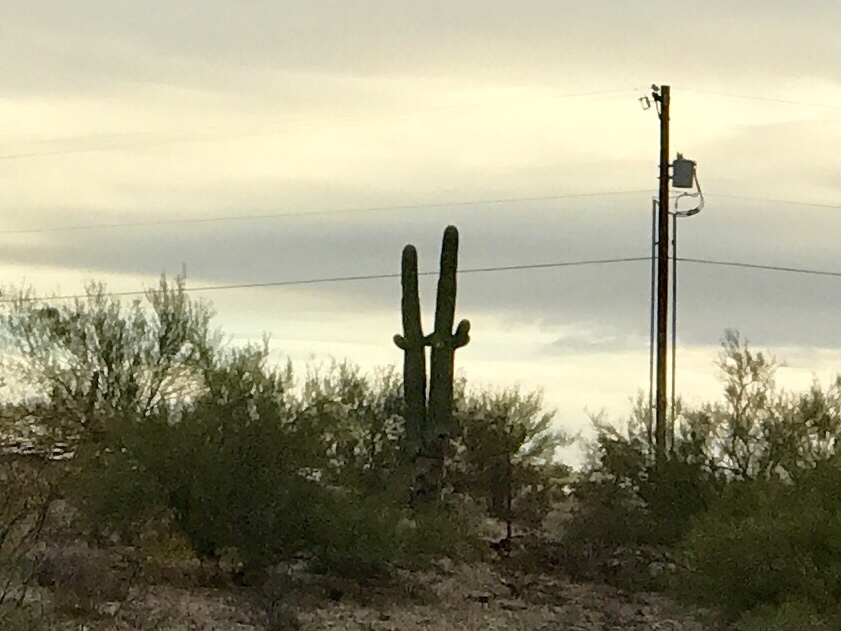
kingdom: Plantae
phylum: Tracheophyta
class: Magnoliopsida
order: Caryophyllales
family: Cactaceae
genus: Carnegiea
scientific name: Carnegiea gigantea
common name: Saguaro
